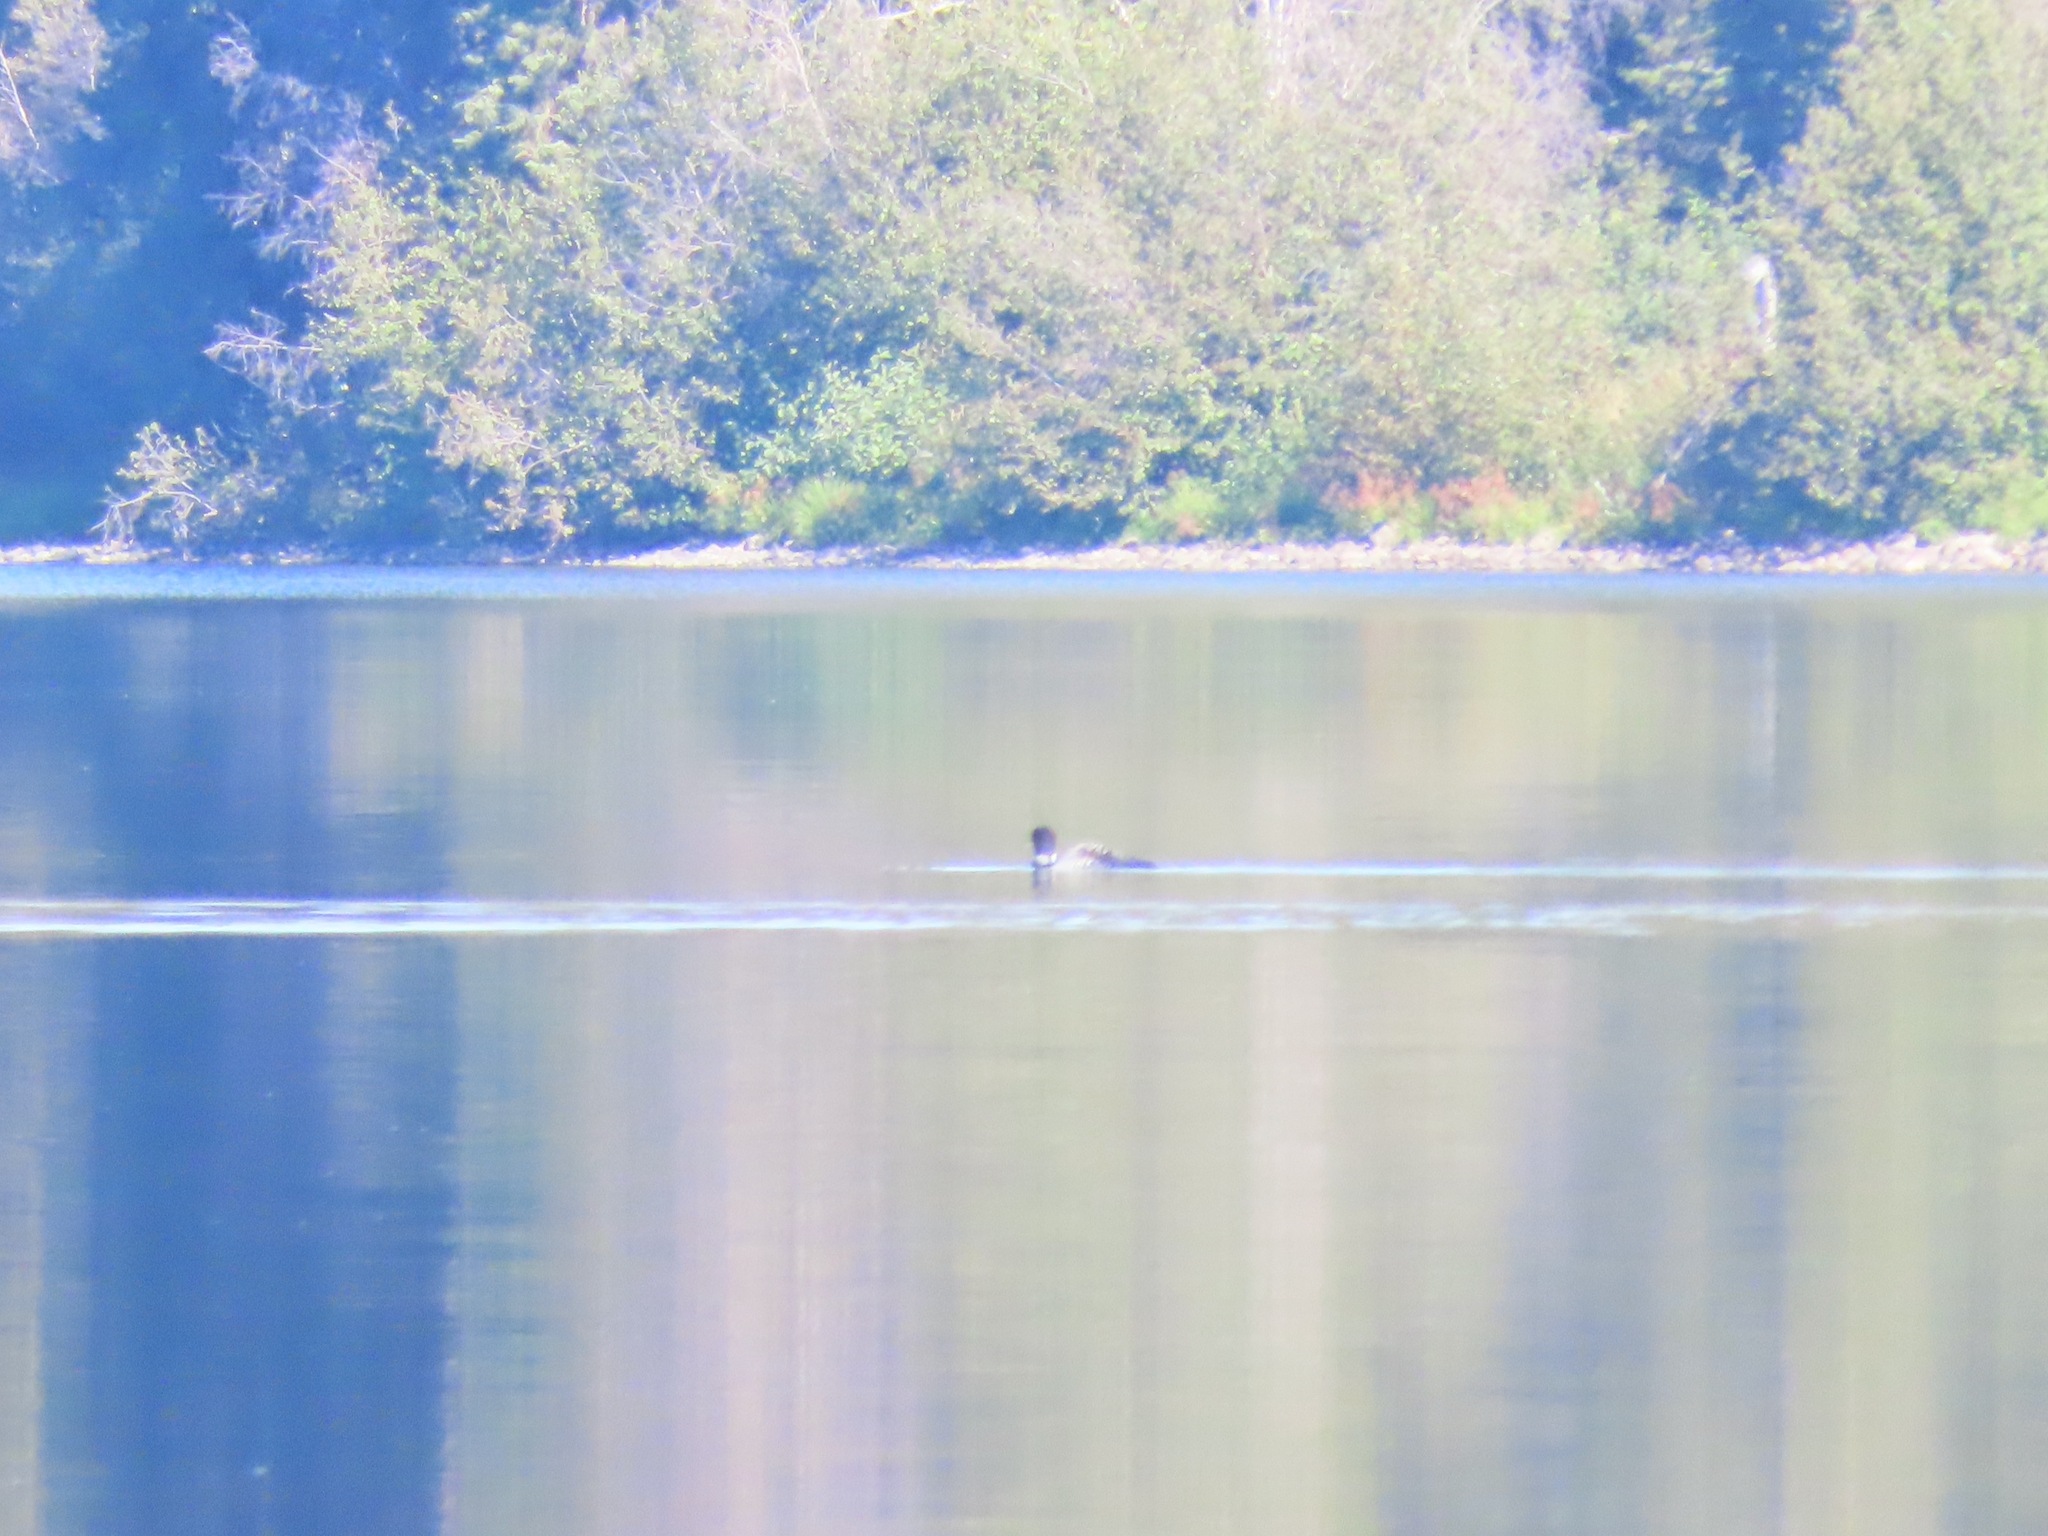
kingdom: Animalia
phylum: Chordata
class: Aves
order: Gaviiformes
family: Gaviidae
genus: Gavia
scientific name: Gavia immer
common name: Common loon
